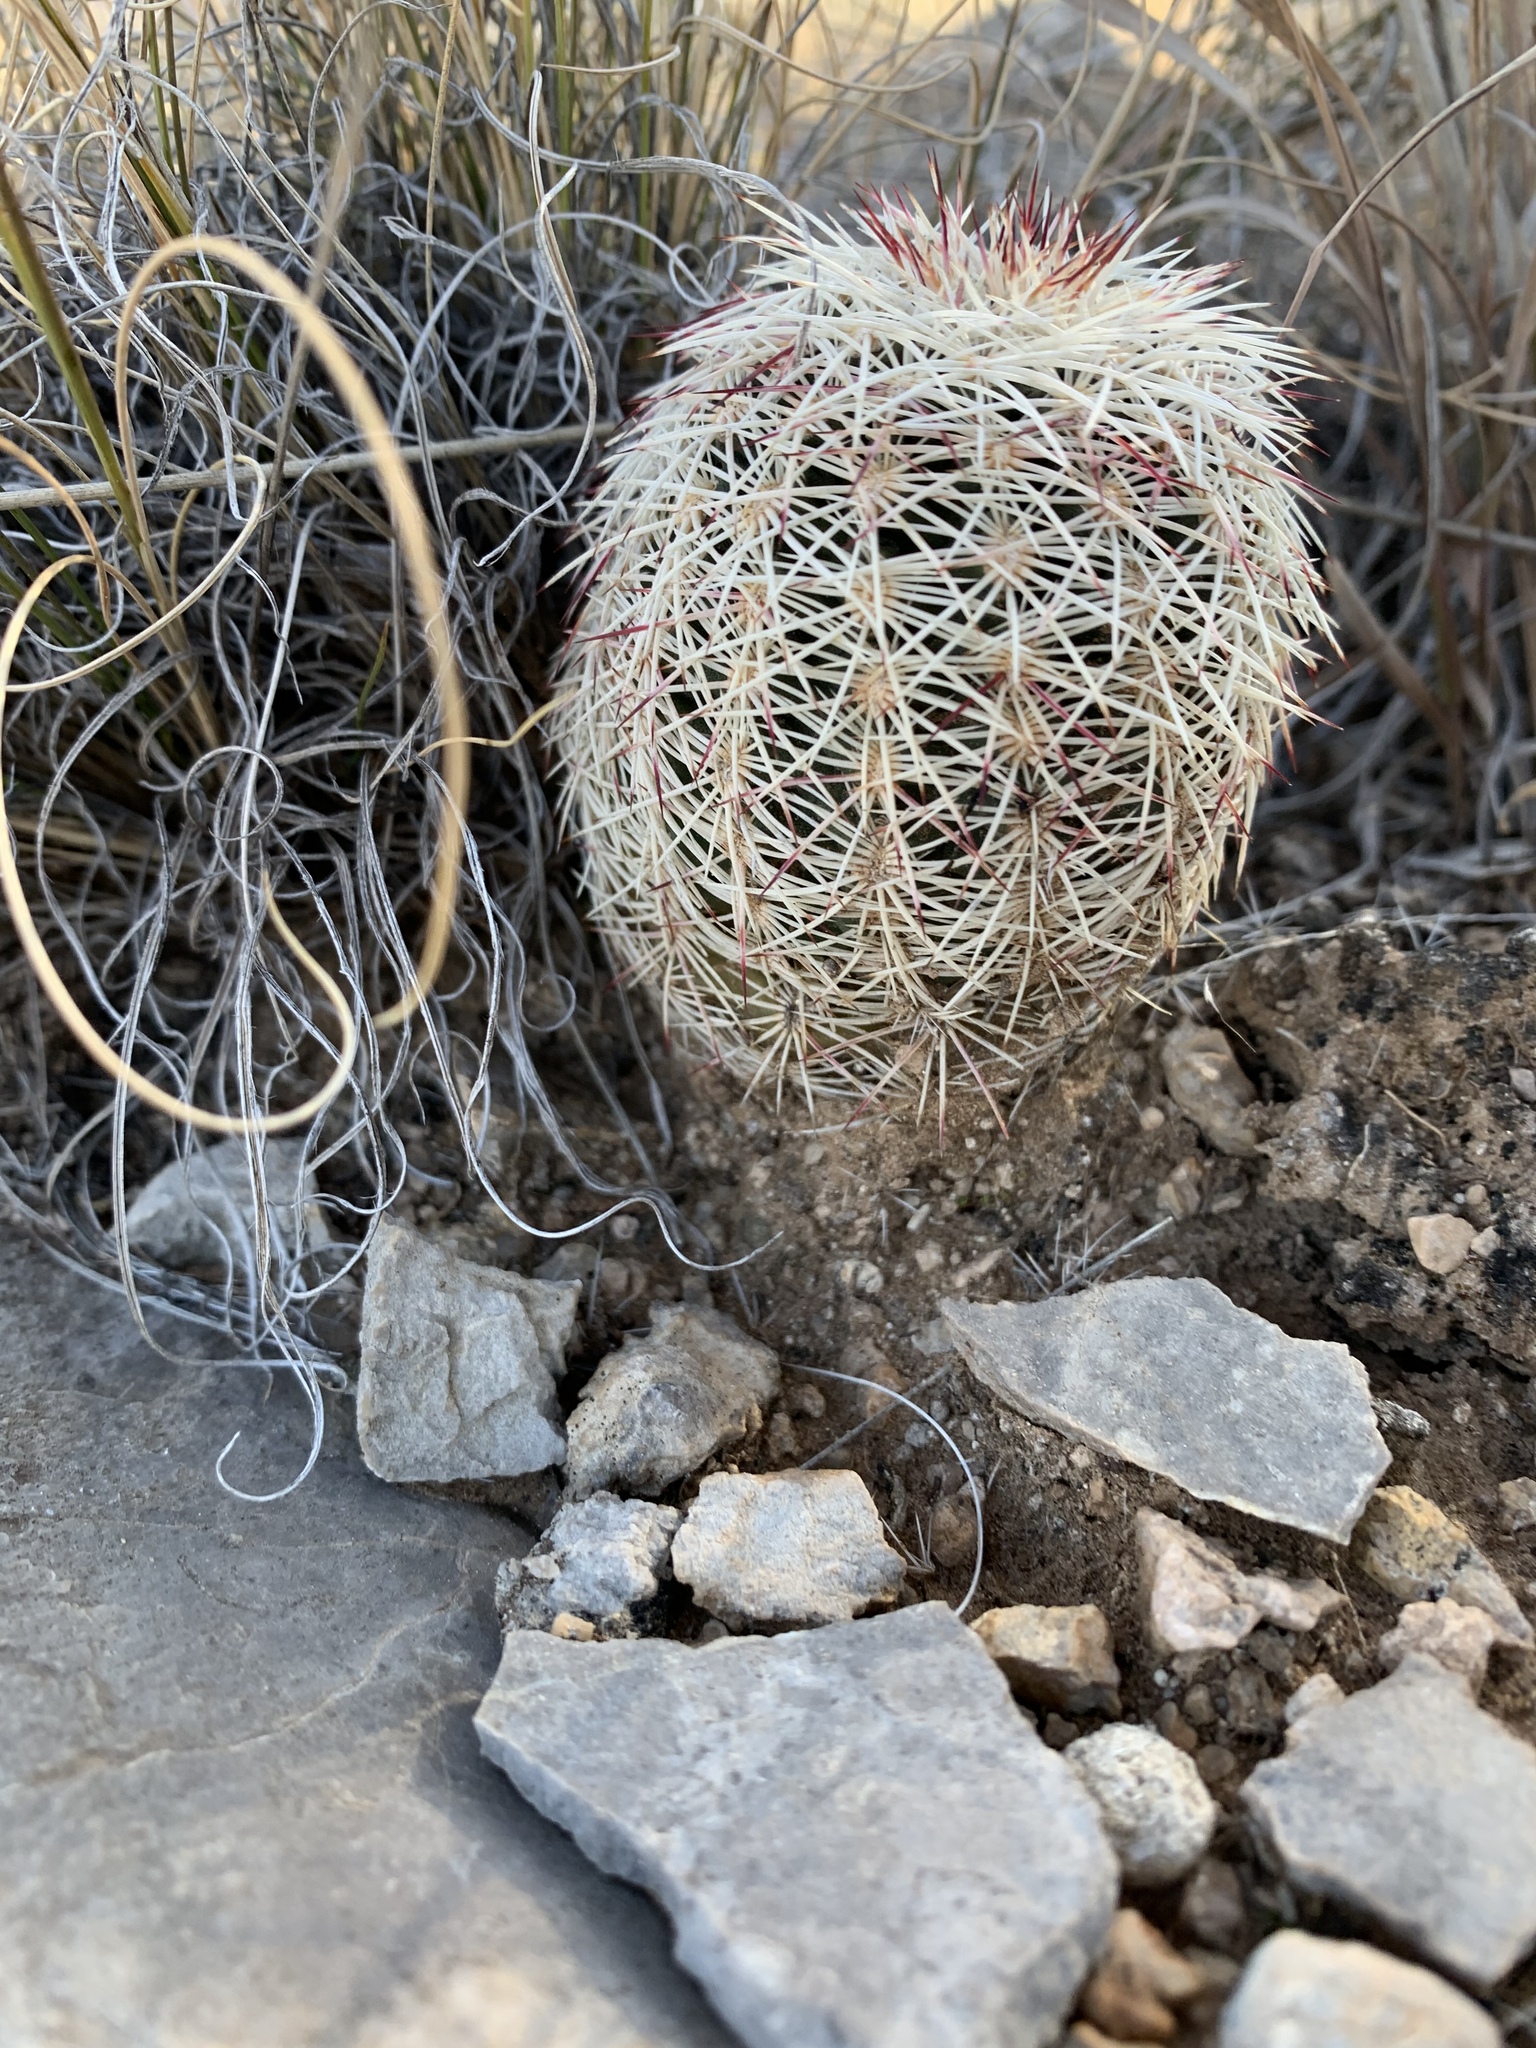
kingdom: Plantae
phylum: Tracheophyta
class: Magnoliopsida
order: Caryophyllales
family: Cactaceae
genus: Echinocereus
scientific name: Echinocereus viridiflorus
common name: Nylon hedgehog cactus
